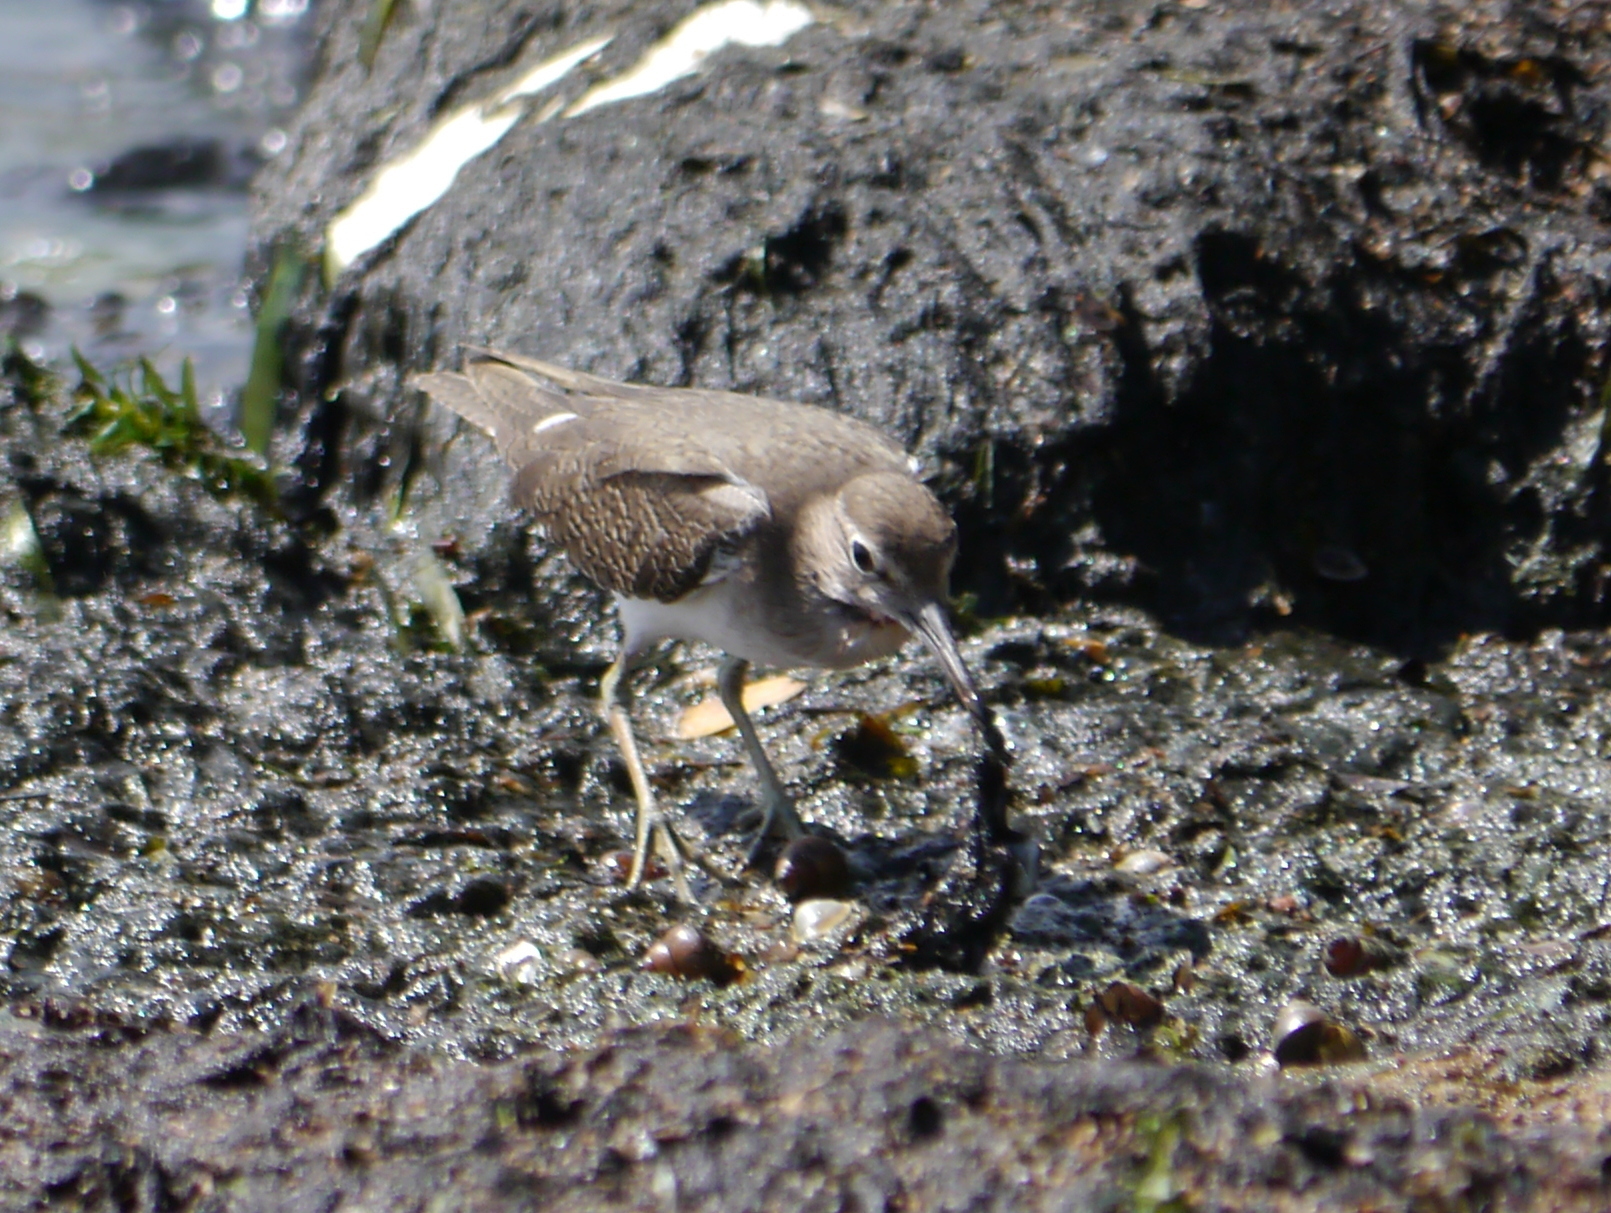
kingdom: Animalia
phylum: Chordata
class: Aves
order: Charadriiformes
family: Scolopacidae
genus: Actitis
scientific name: Actitis hypoleucos
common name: Common sandpiper
